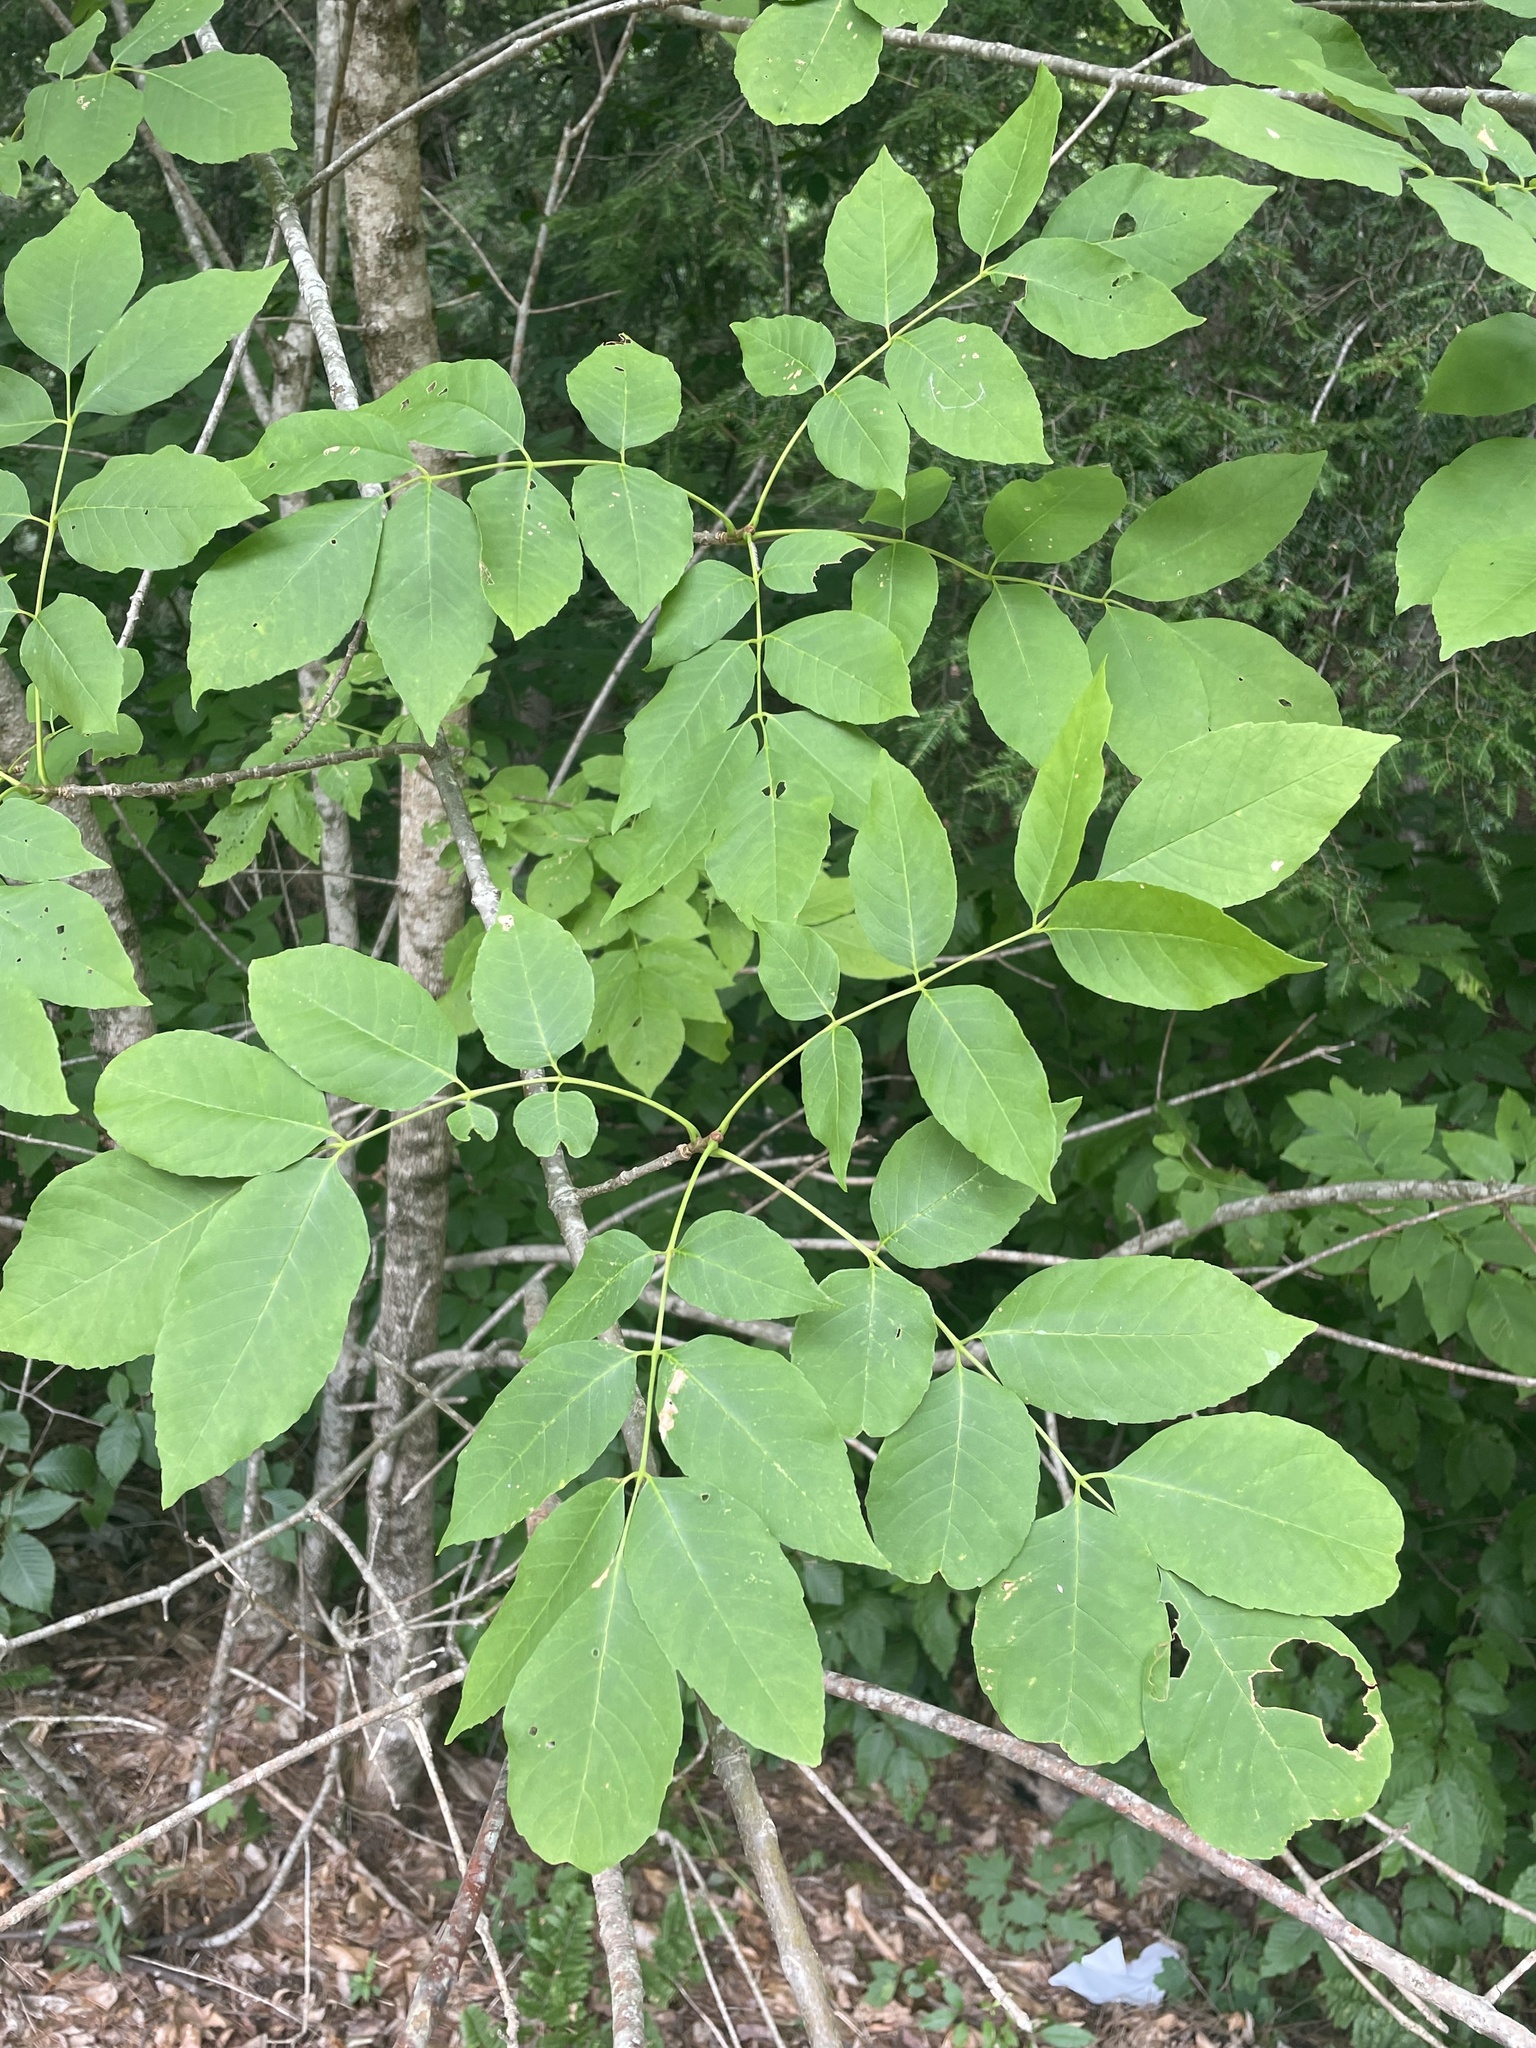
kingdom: Plantae
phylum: Tracheophyta
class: Magnoliopsida
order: Lamiales
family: Oleaceae
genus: Fraxinus
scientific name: Fraxinus americana
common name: White ash
